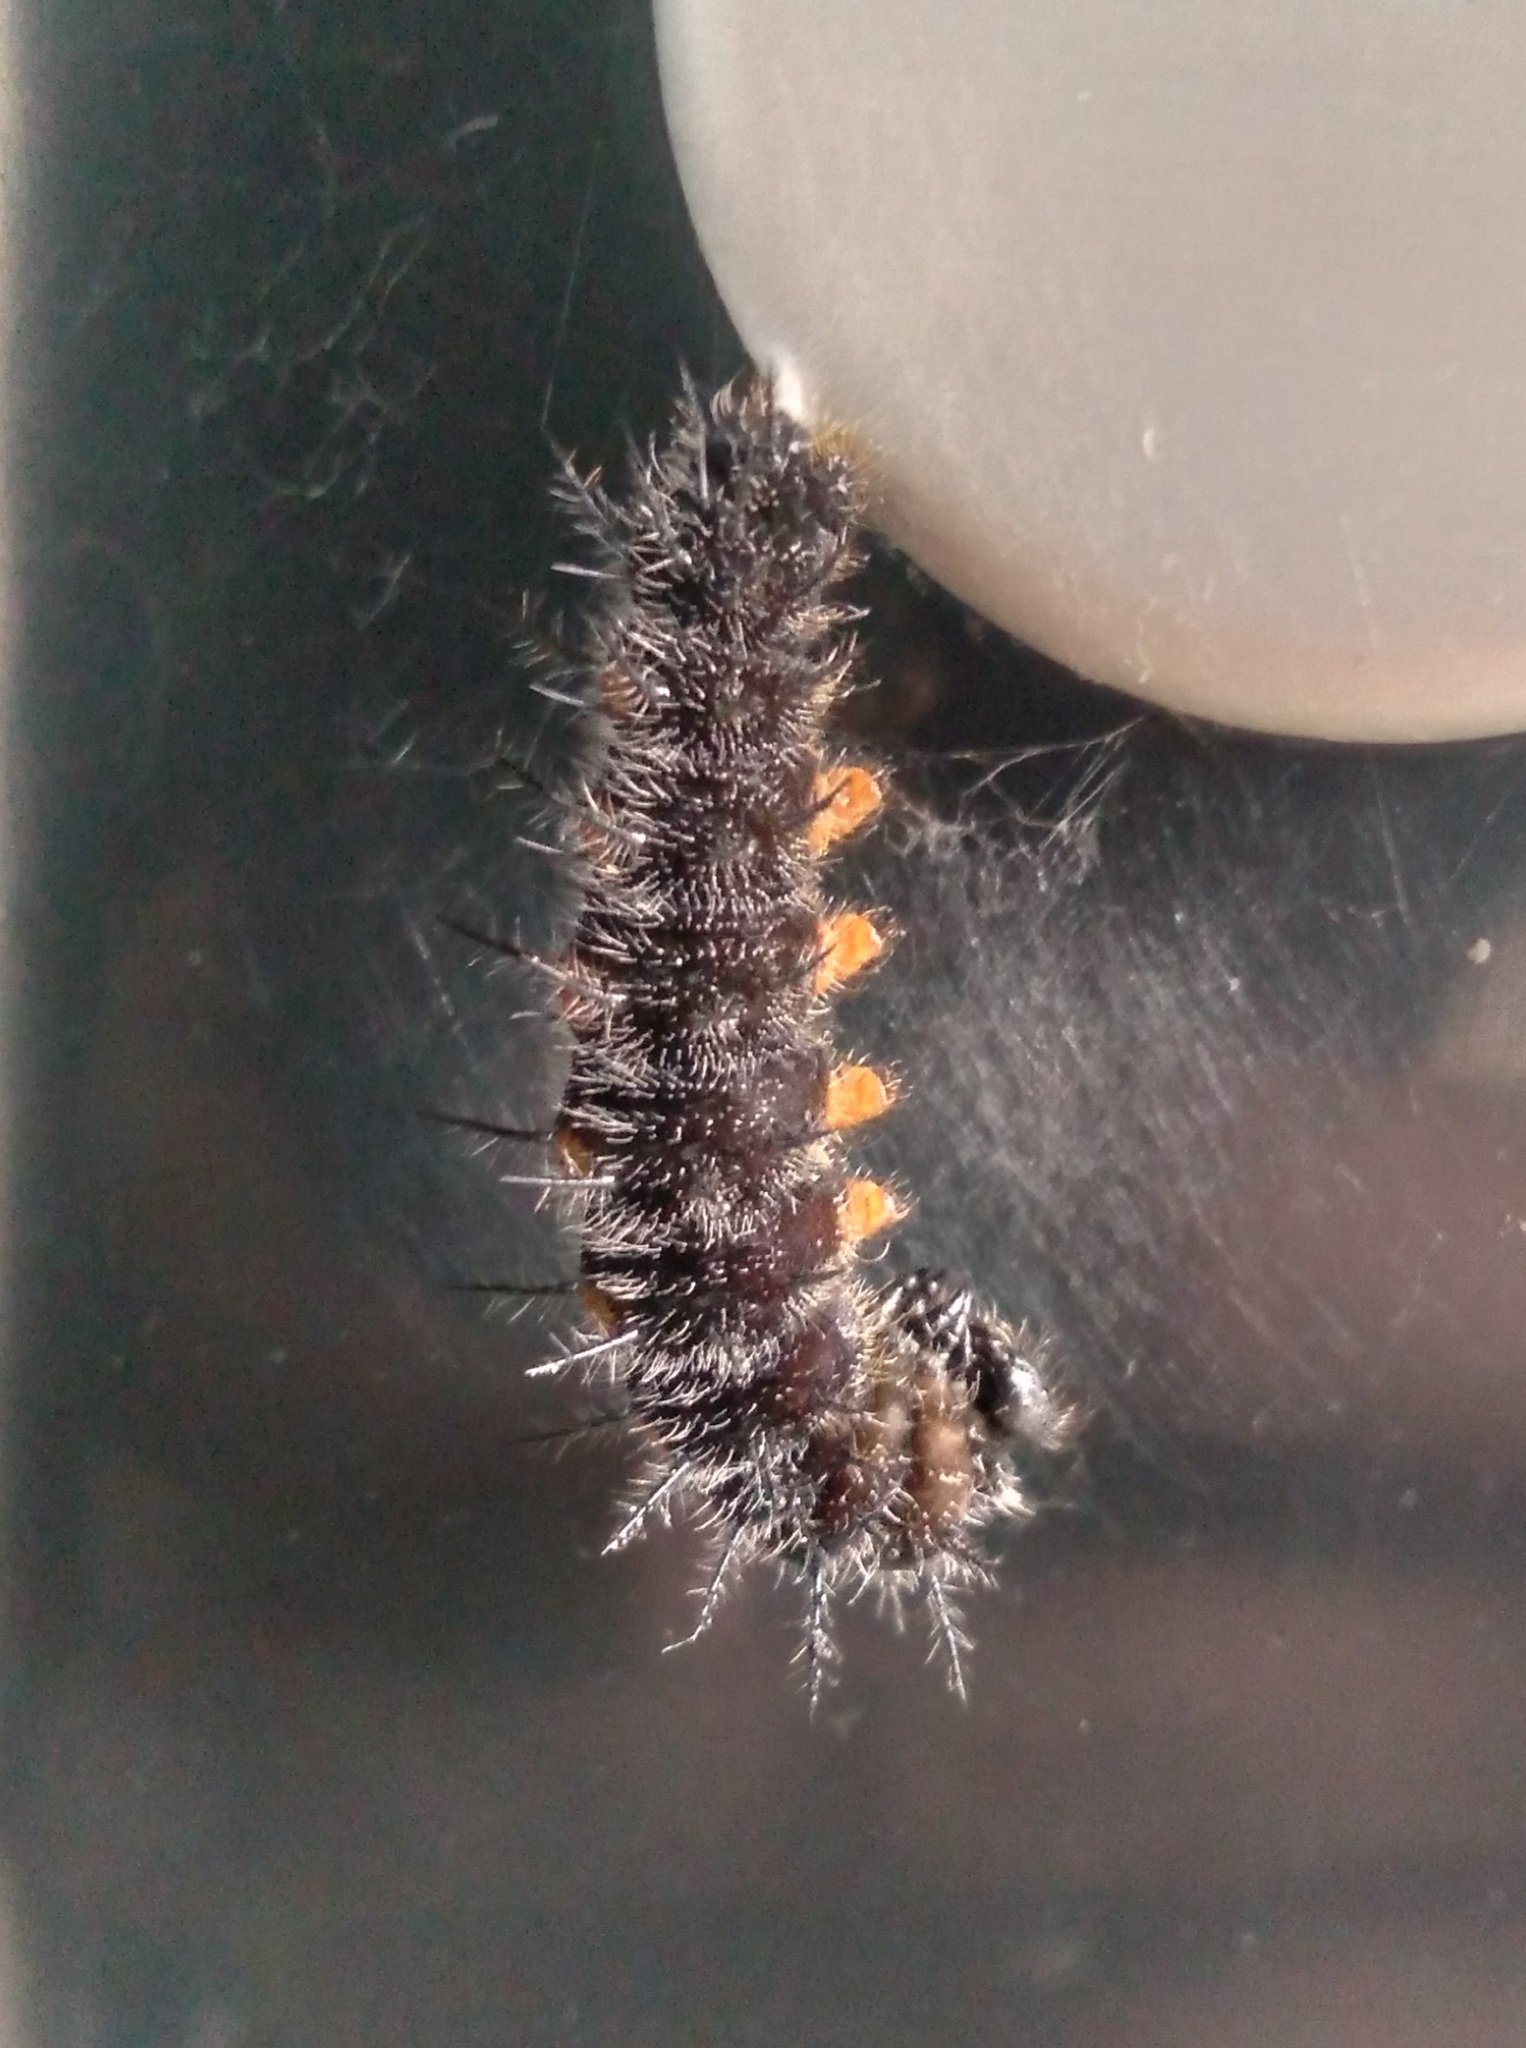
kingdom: Animalia
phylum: Arthropoda
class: Insecta
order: Lepidoptera
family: Nymphalidae
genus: Nymphalis
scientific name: Nymphalis antiopa
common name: Camberwell beauty
